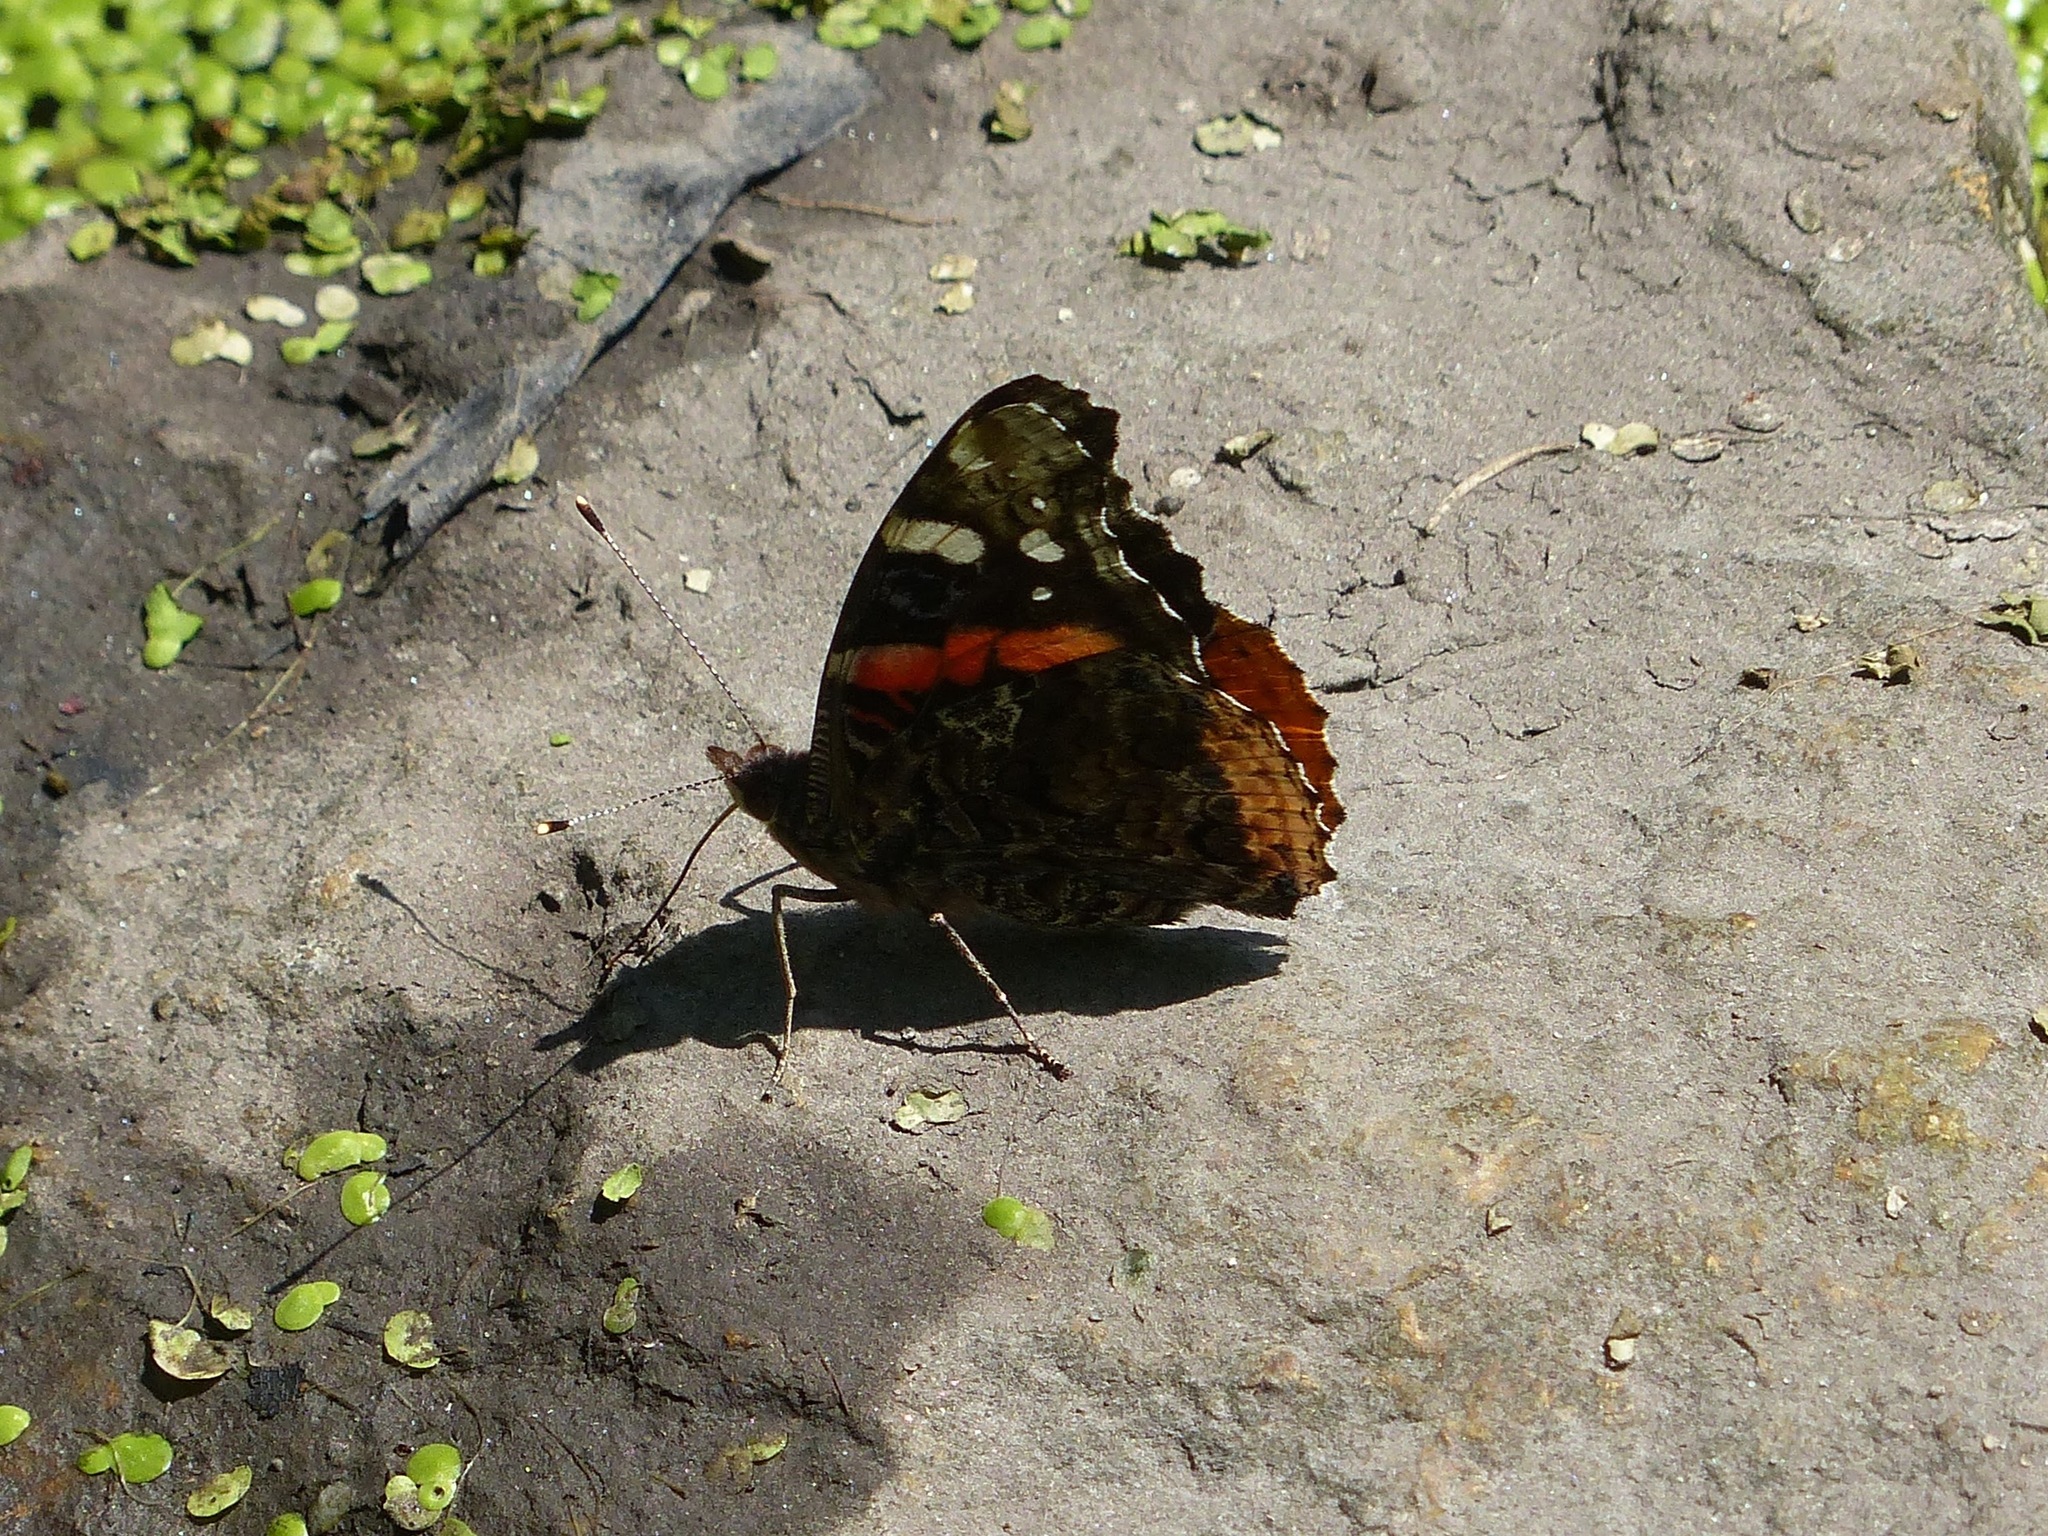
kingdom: Animalia
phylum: Arthropoda
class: Insecta
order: Lepidoptera
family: Nymphalidae
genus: Vanessa
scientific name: Vanessa atalanta
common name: Red admiral
